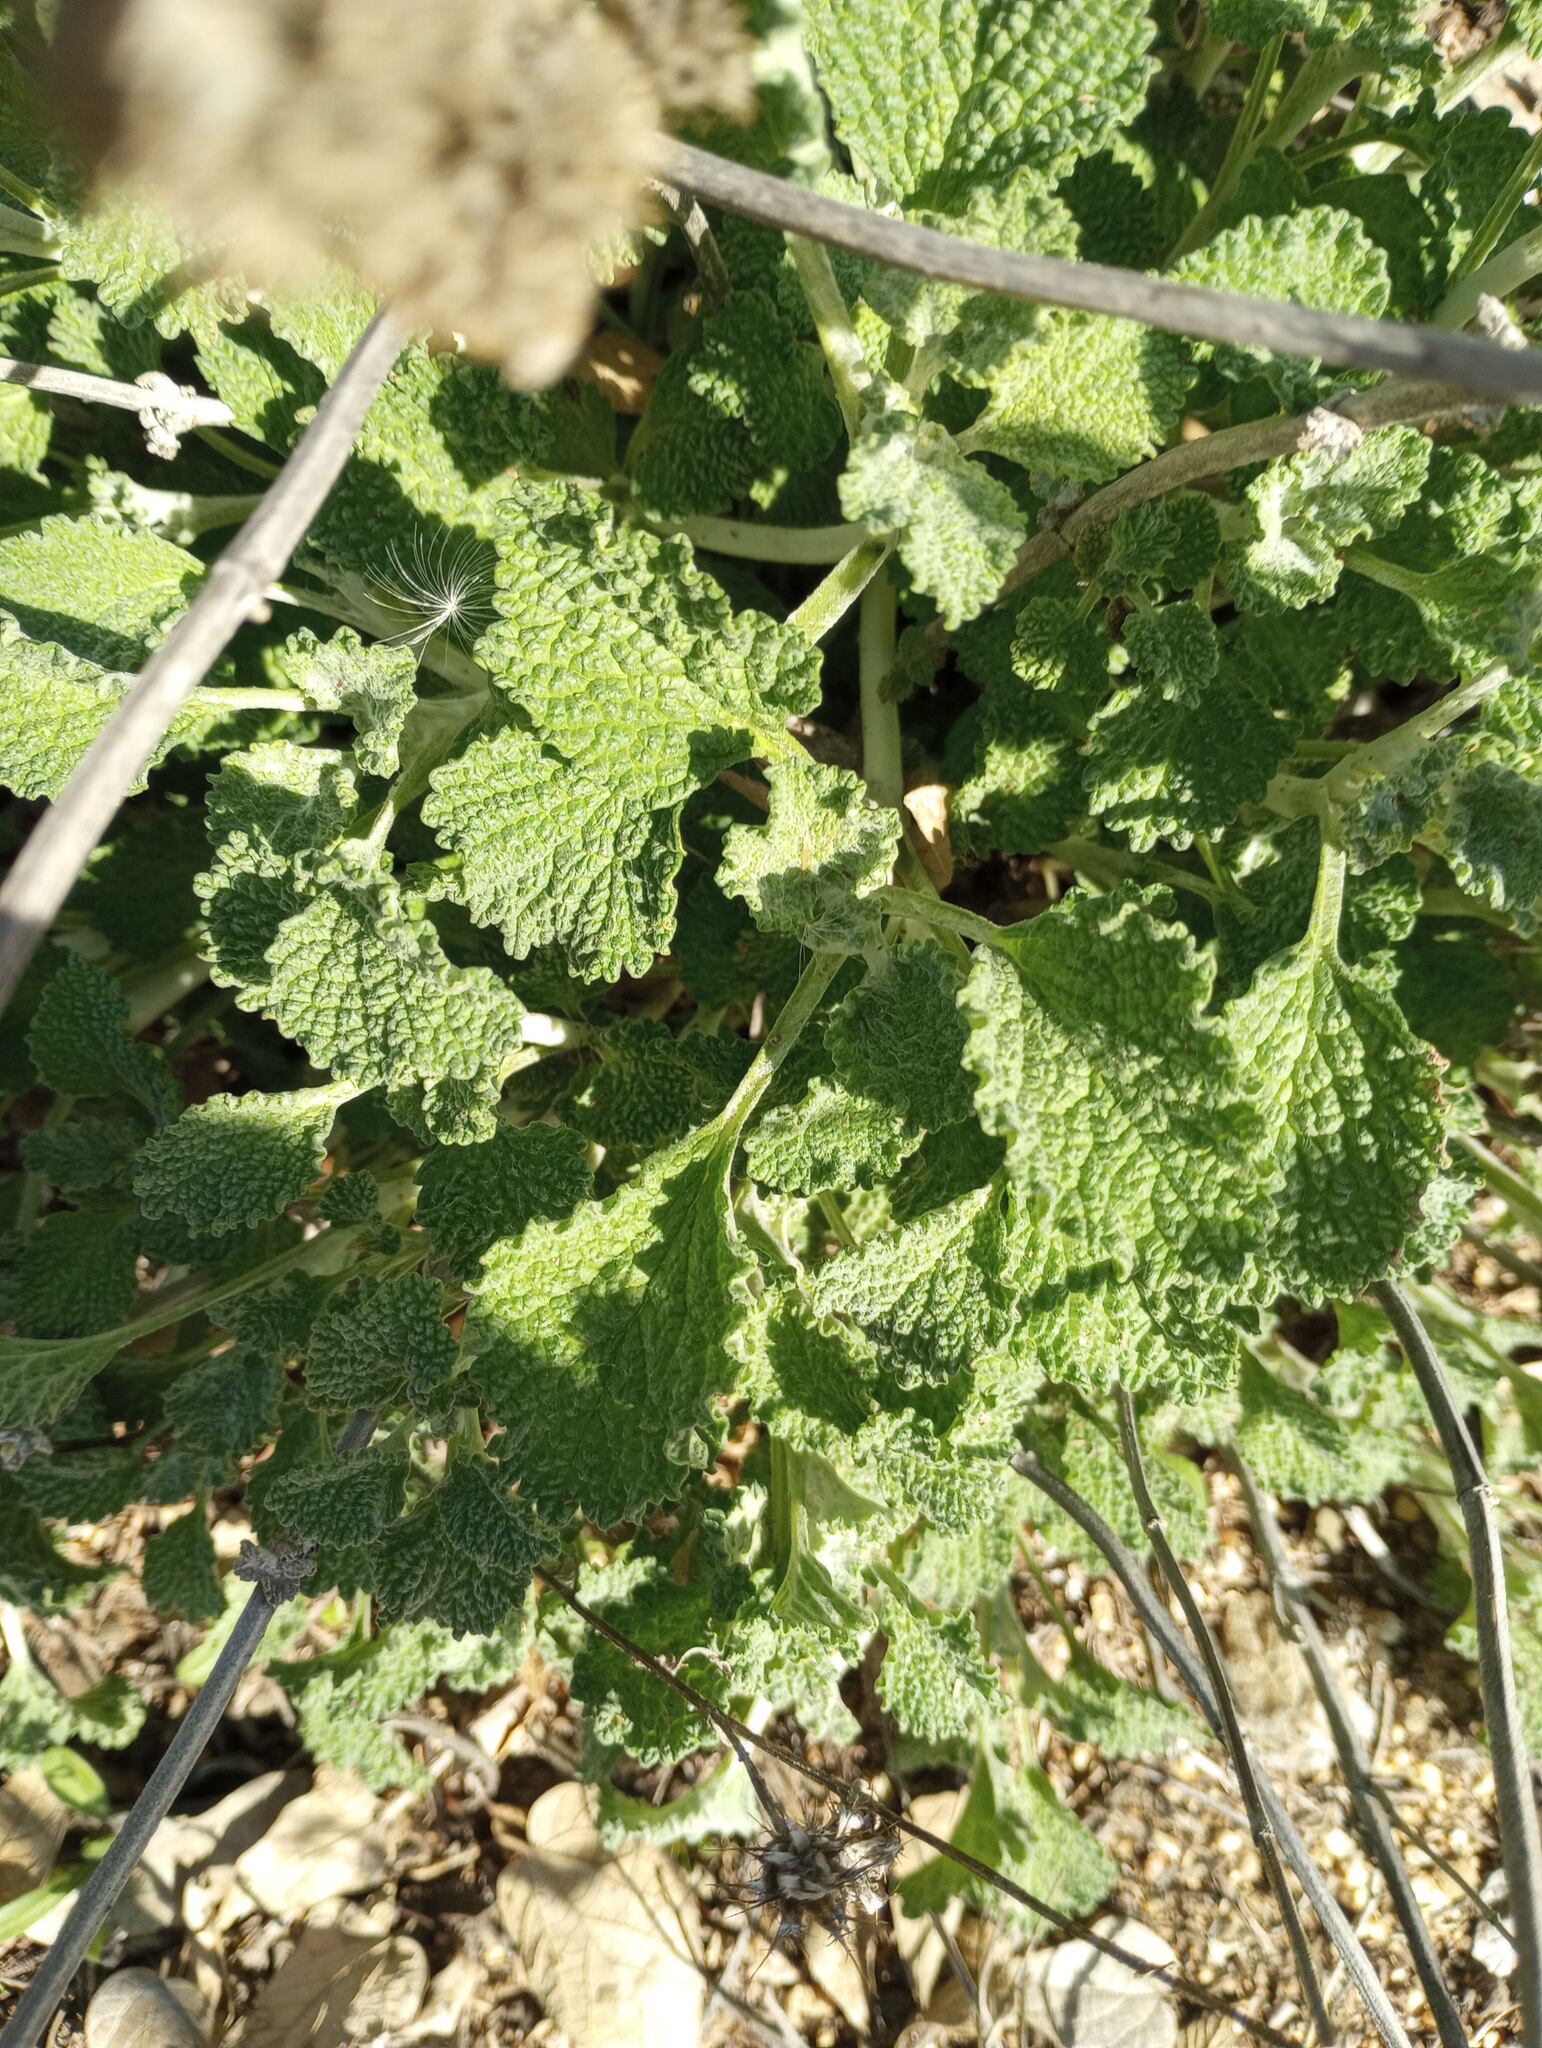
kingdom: Plantae
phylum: Tracheophyta
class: Magnoliopsida
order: Lamiales
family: Lamiaceae
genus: Marrubium
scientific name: Marrubium vulgare
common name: Horehound
